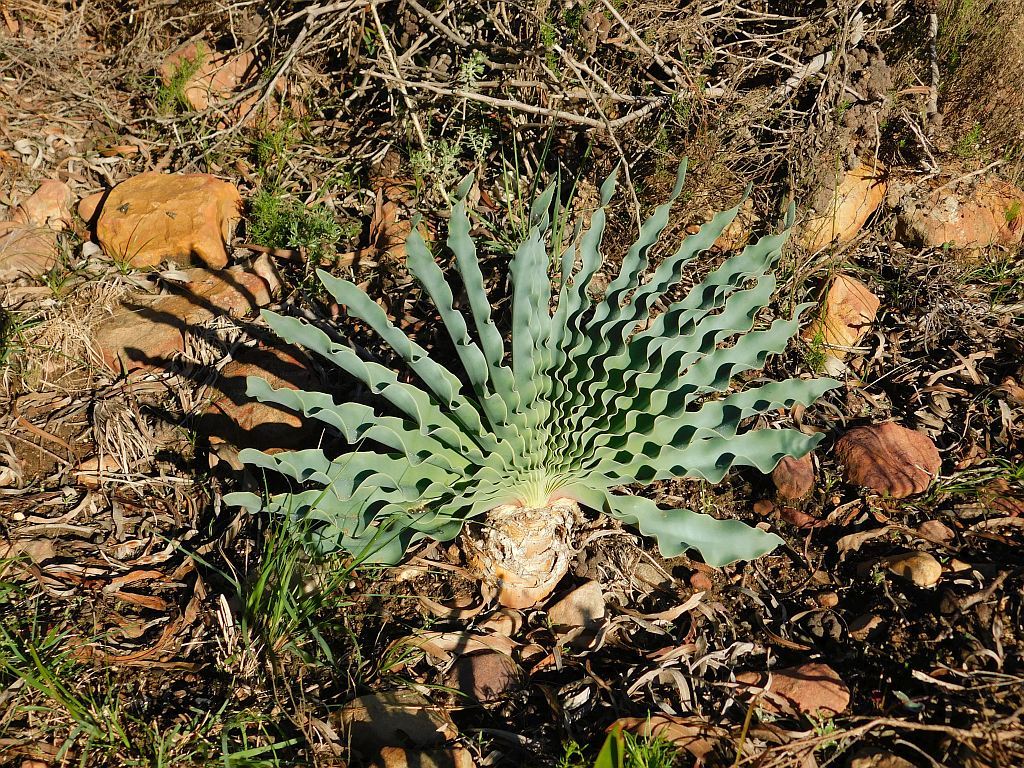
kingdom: Plantae
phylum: Tracheophyta
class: Liliopsida
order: Asparagales
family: Amaryllidaceae
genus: Boophone
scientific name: Boophone disticha
